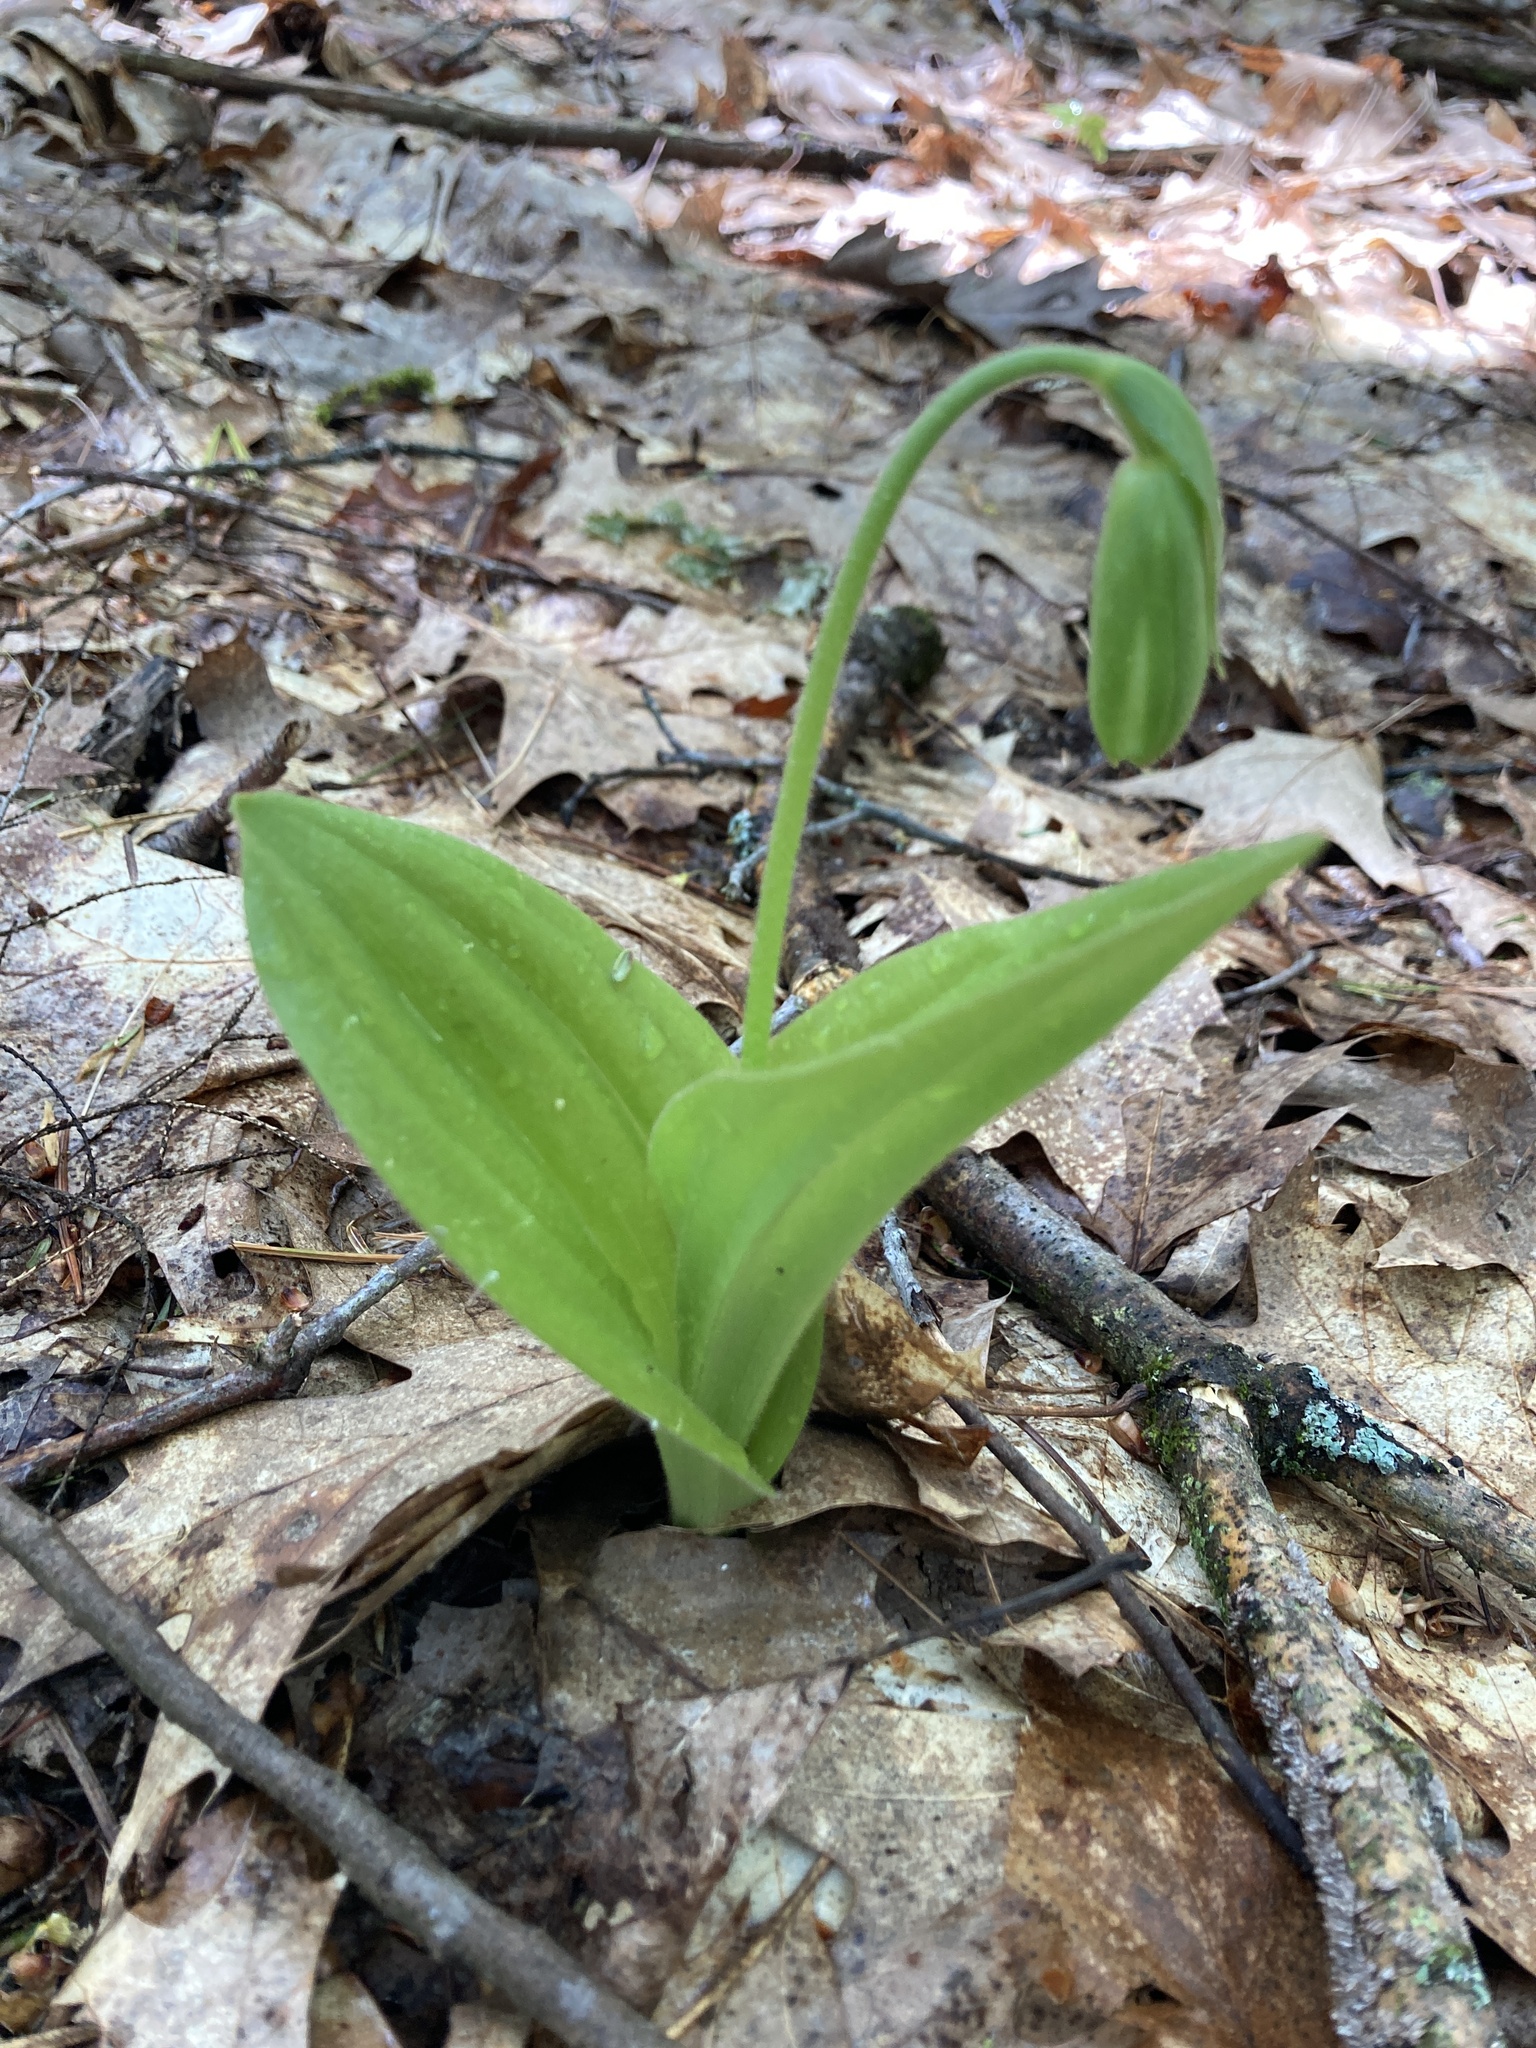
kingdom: Plantae
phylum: Tracheophyta
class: Liliopsida
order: Asparagales
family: Orchidaceae
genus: Cypripedium
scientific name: Cypripedium acaule
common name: Pink lady's-slipper
